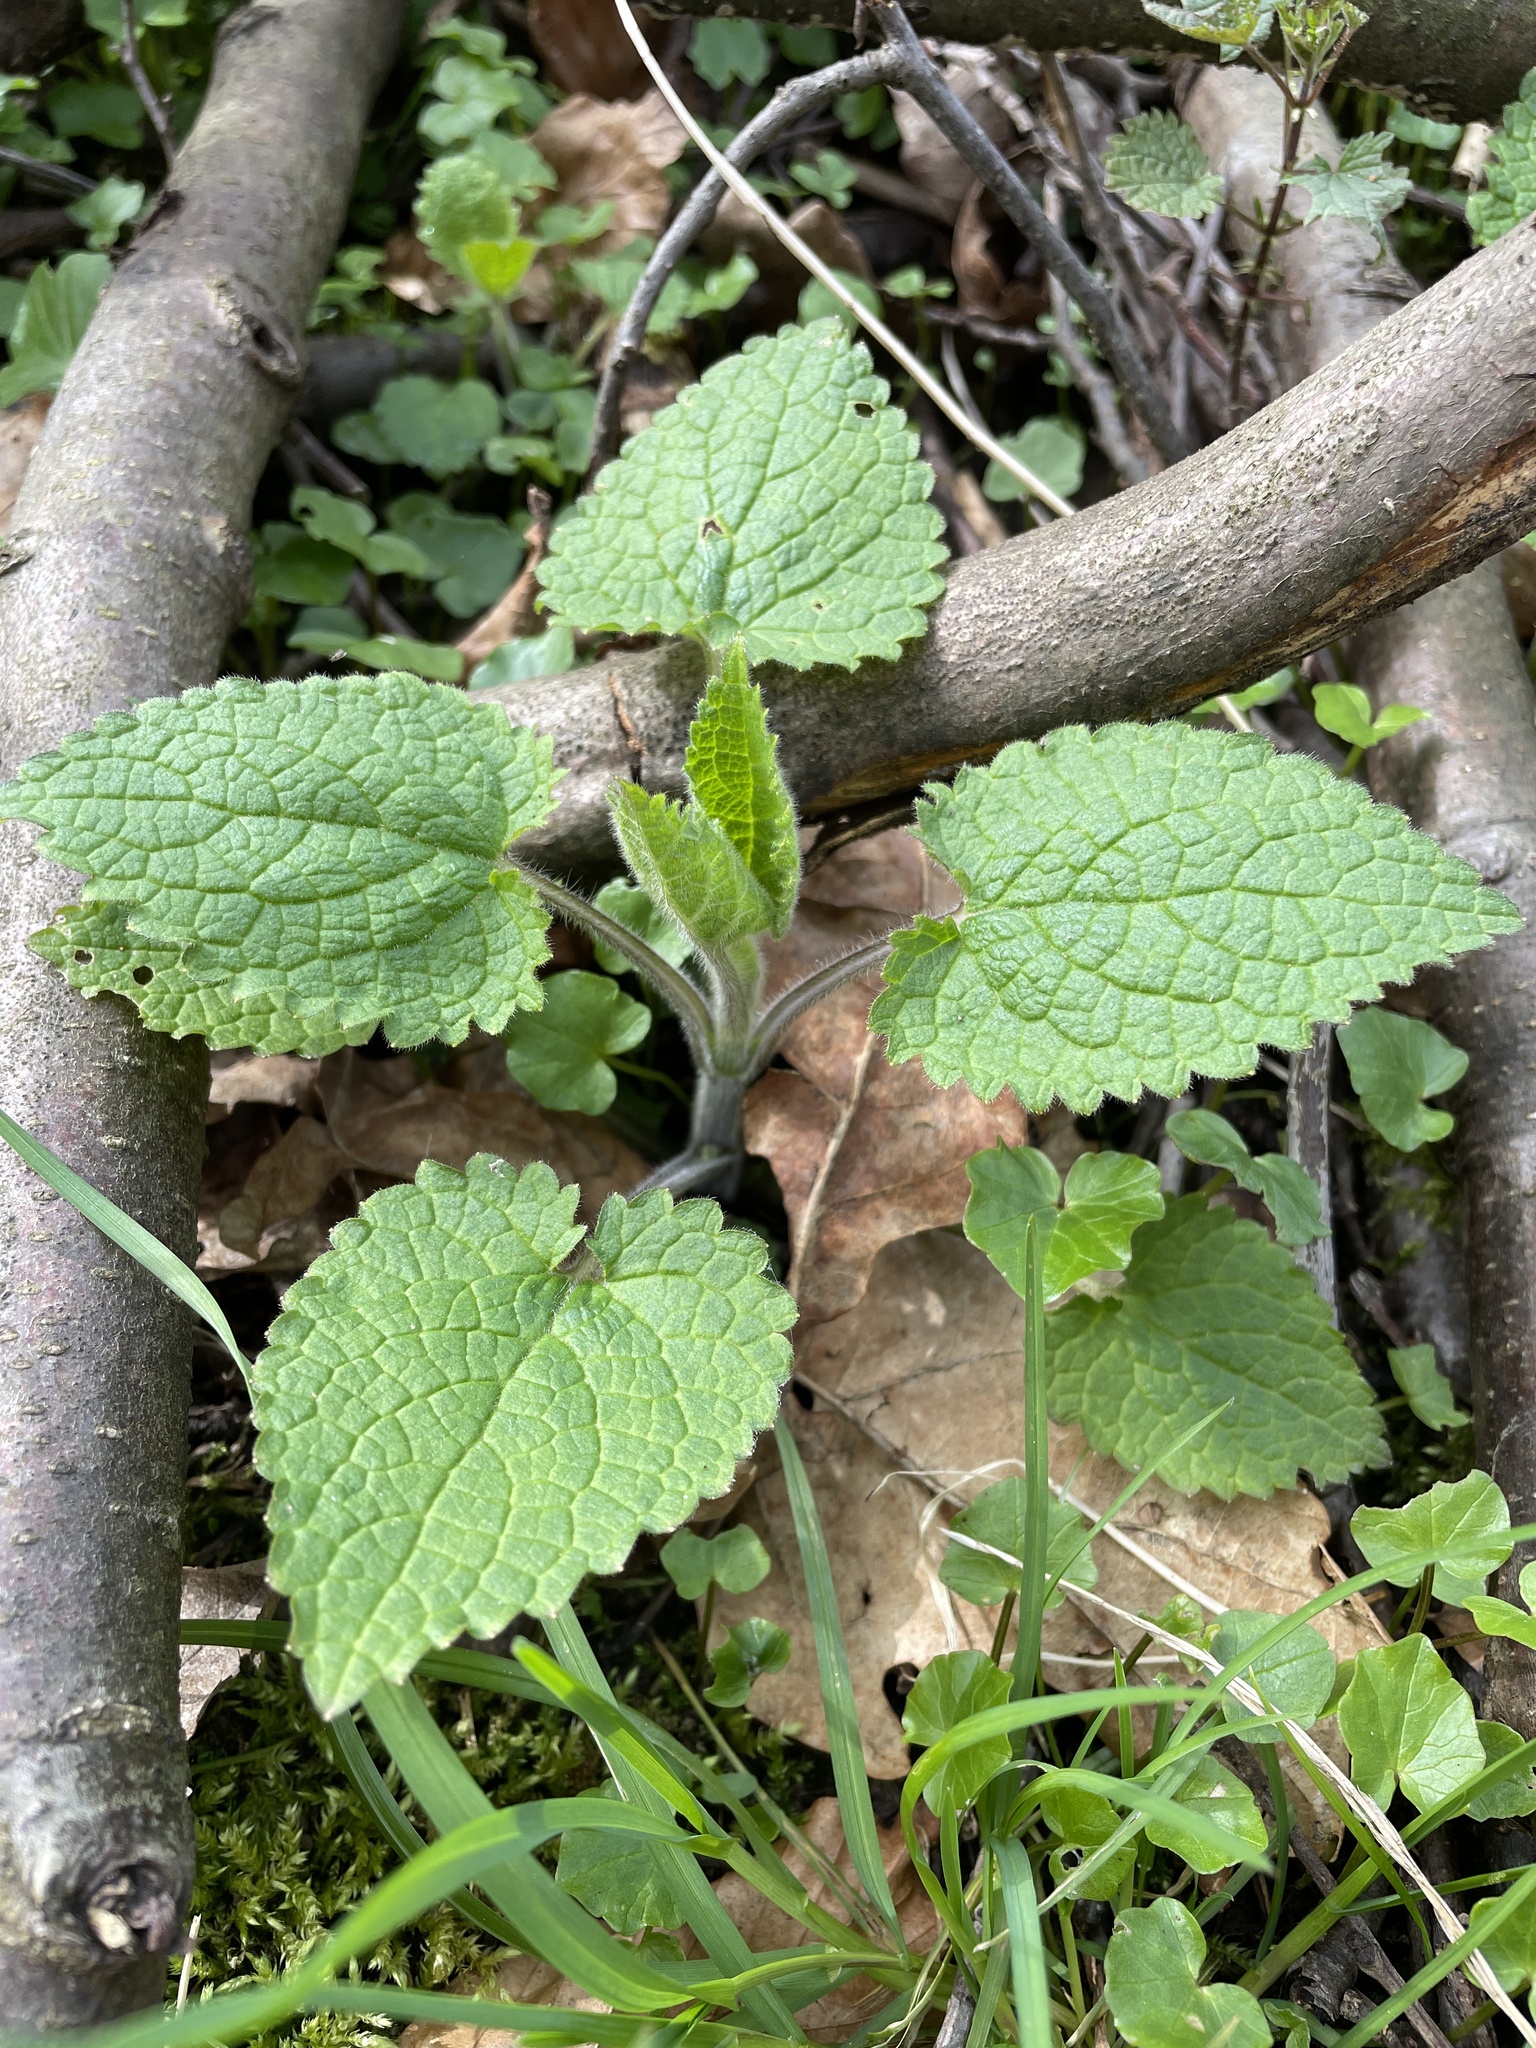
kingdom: Plantae
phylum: Tracheophyta
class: Magnoliopsida
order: Lamiales
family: Lamiaceae
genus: Stachys
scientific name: Stachys sylvatica
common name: Hedge woundwort
